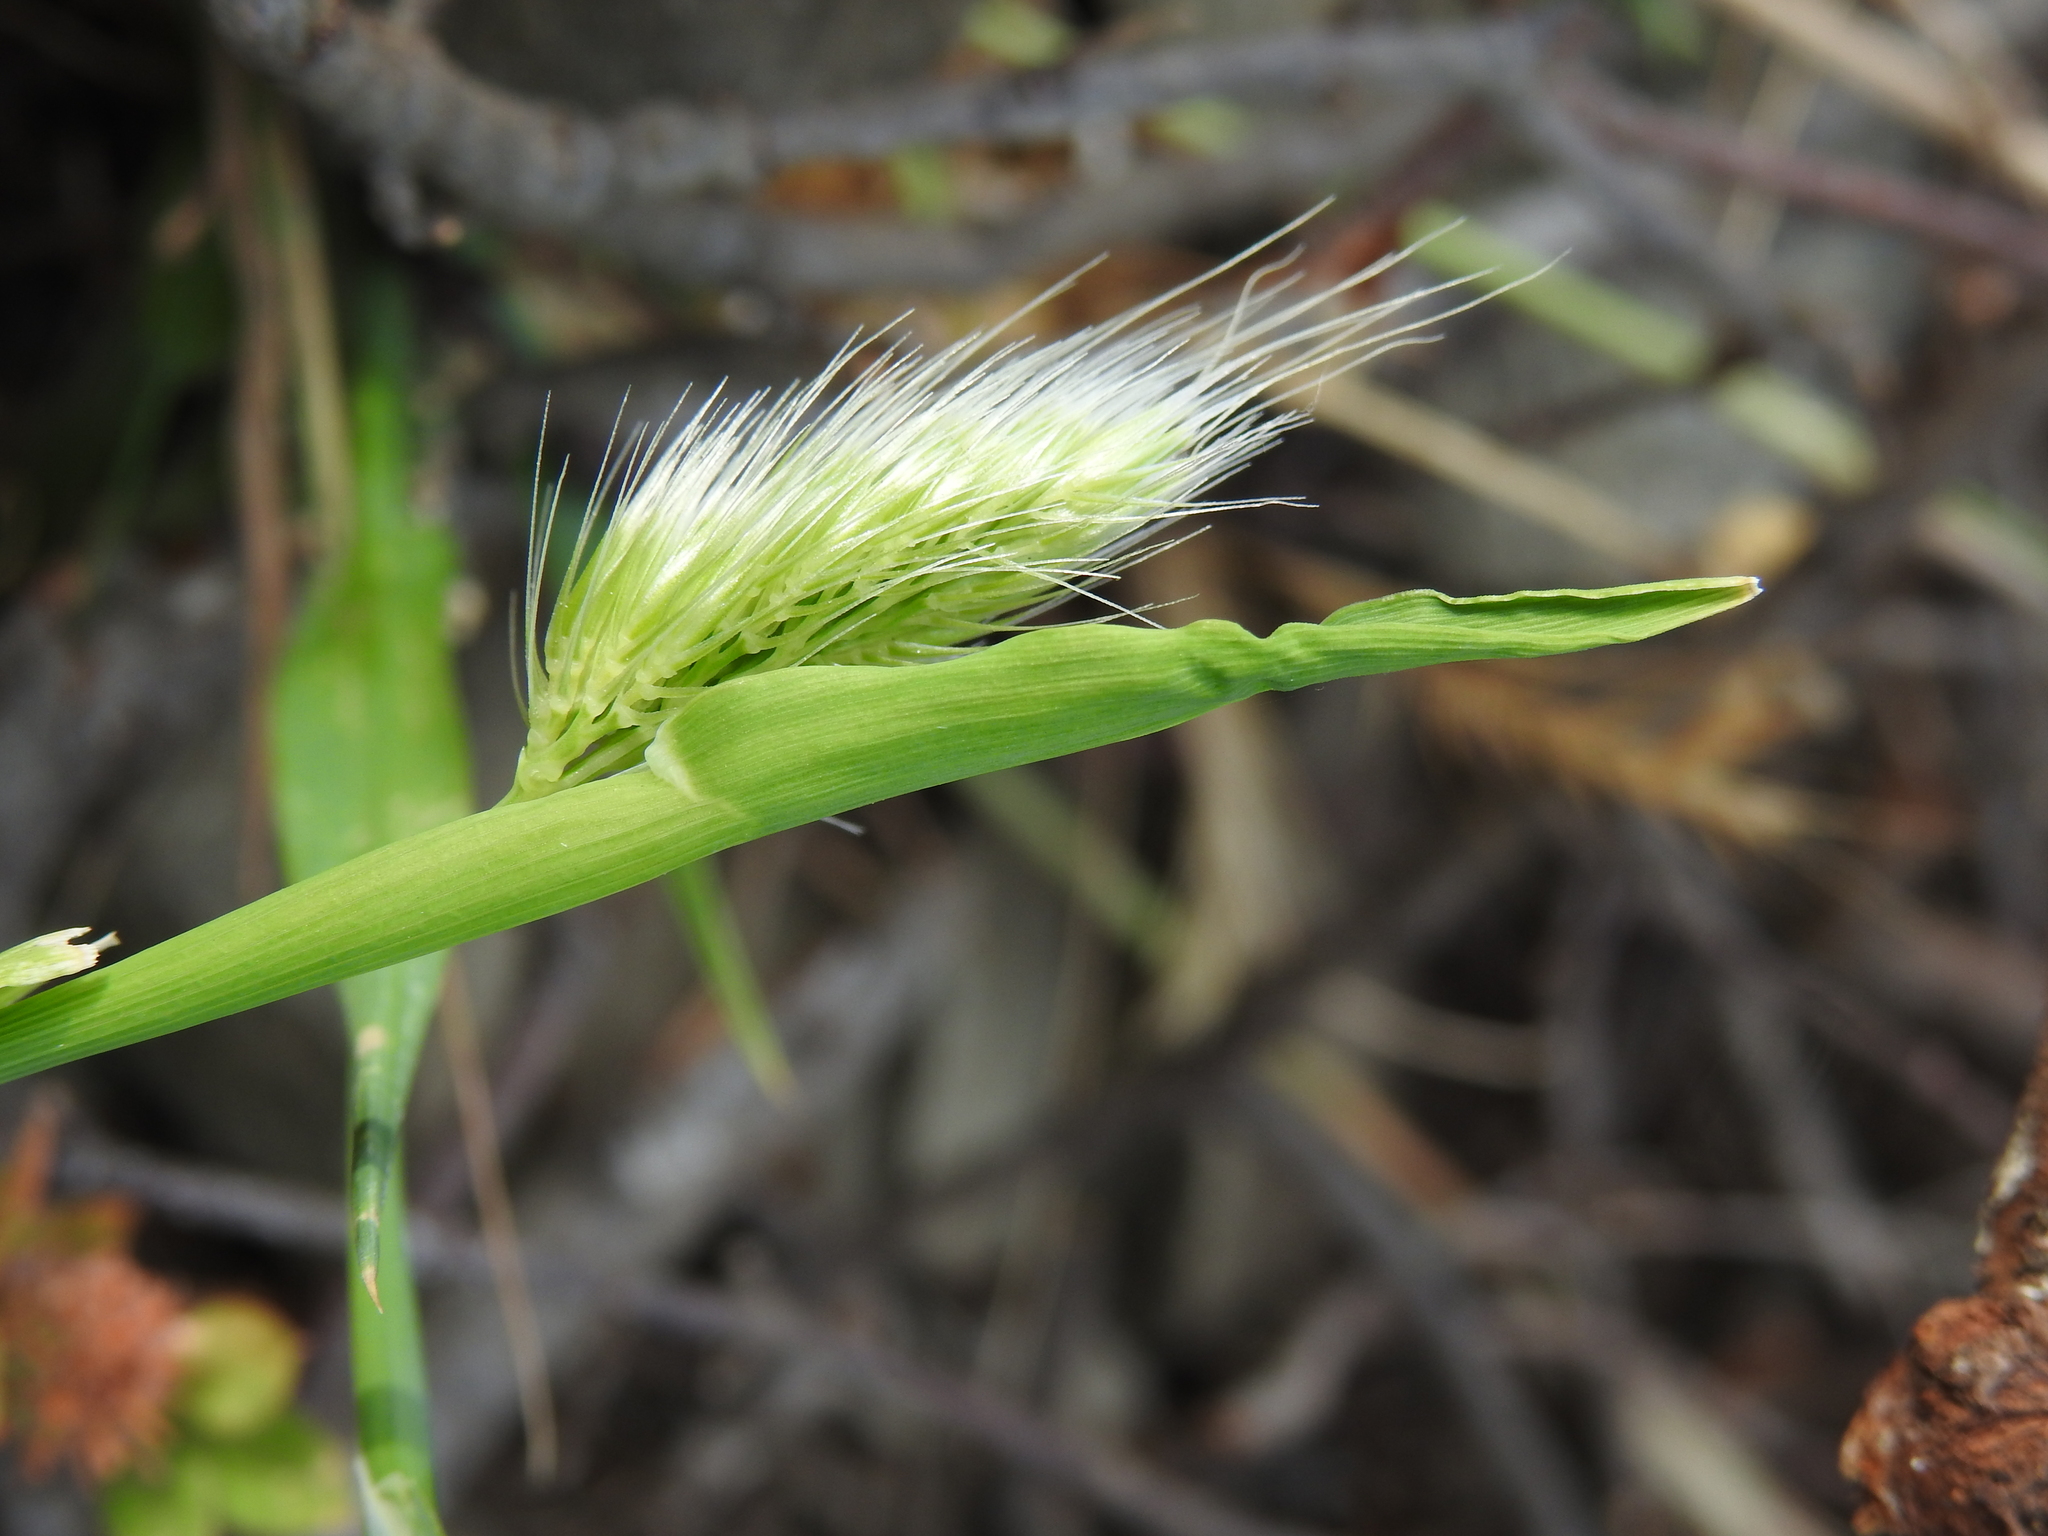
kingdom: Plantae
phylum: Tracheophyta
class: Liliopsida
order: Poales
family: Poaceae
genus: Cynosurus
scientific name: Cynosurus echinatus
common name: Rough dog's-tail
